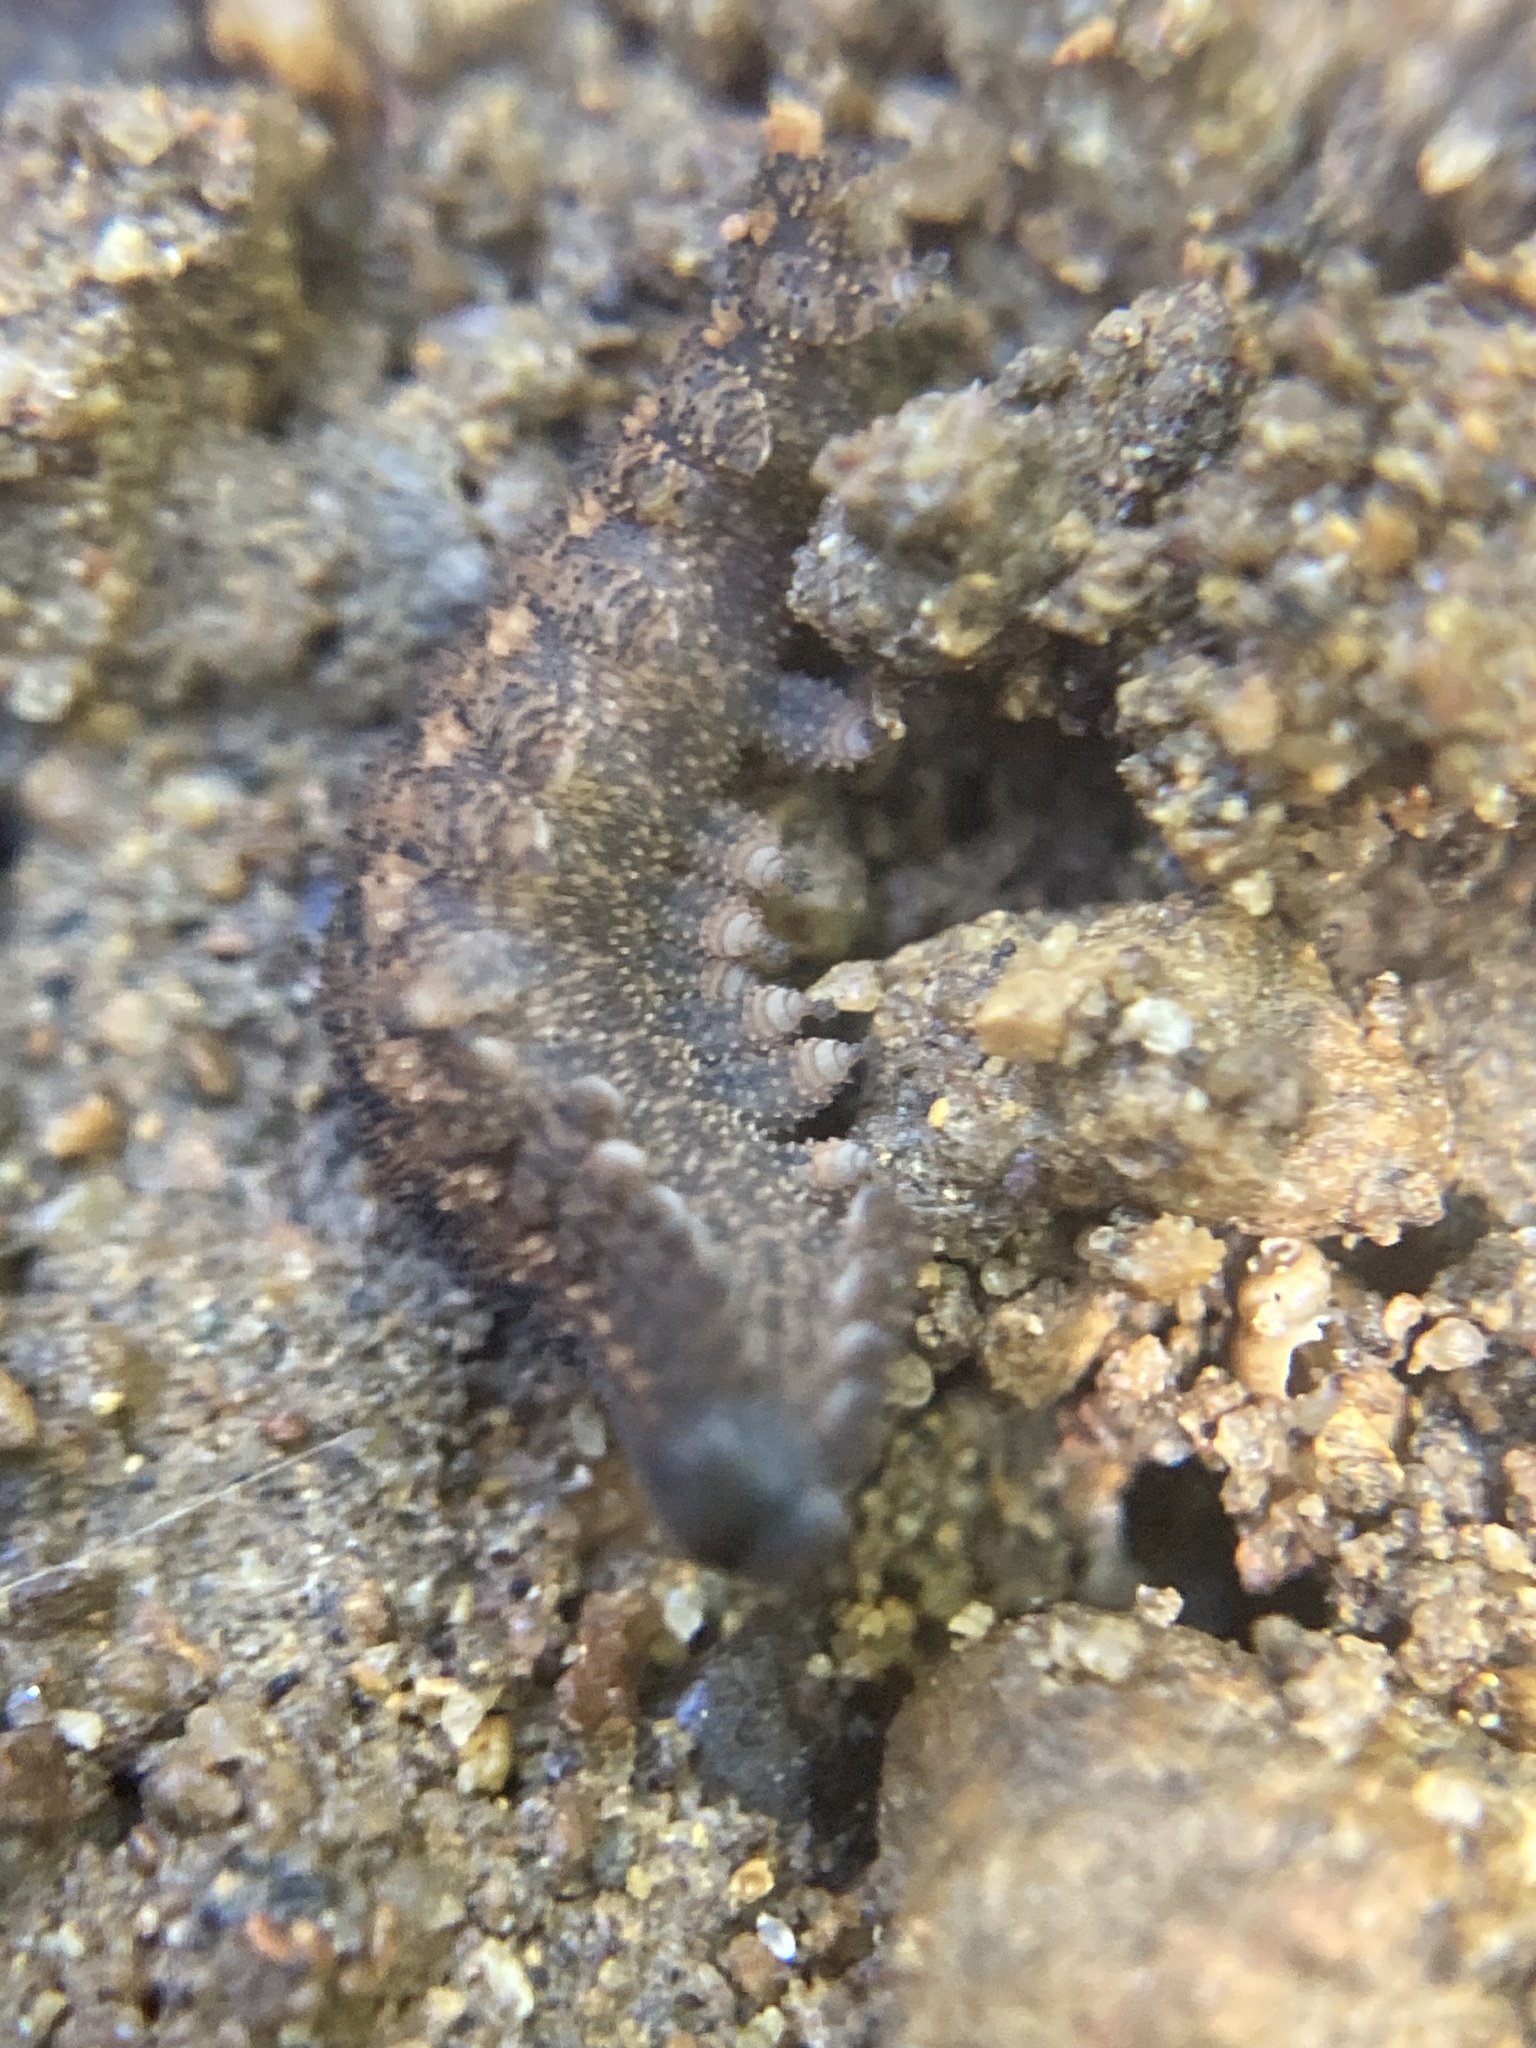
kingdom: Animalia
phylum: Onychophora
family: Peripatopsidae
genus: Anoplokaros
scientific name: Anoplokaros keerensis
